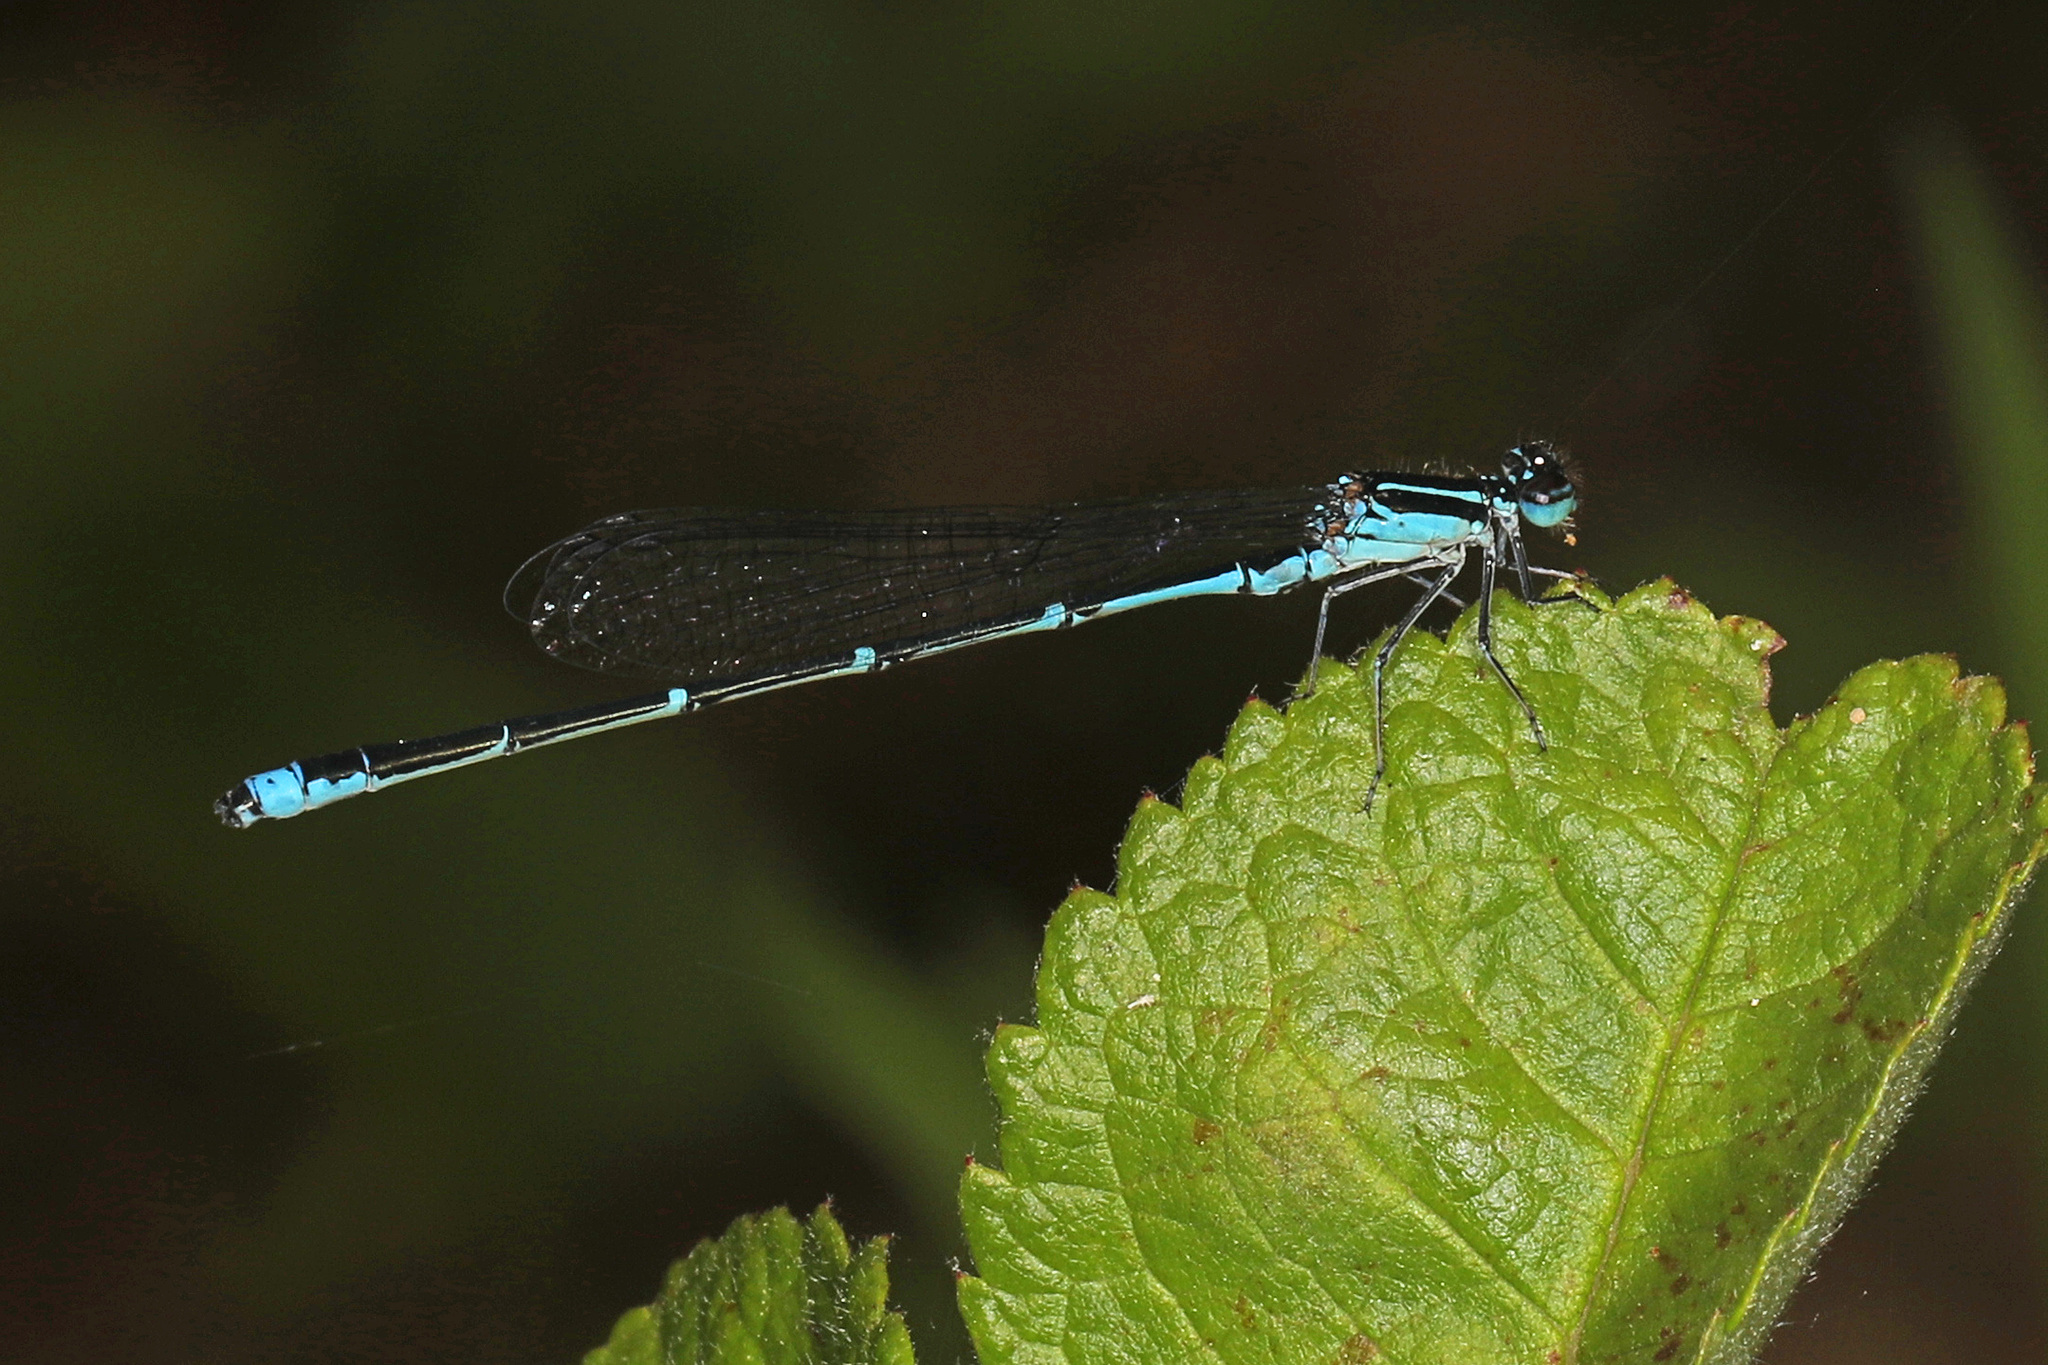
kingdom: Animalia
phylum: Arthropoda
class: Insecta
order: Odonata
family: Coenagrionidae
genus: Enallagma
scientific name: Enallagma exsulans
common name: Stream bluet
